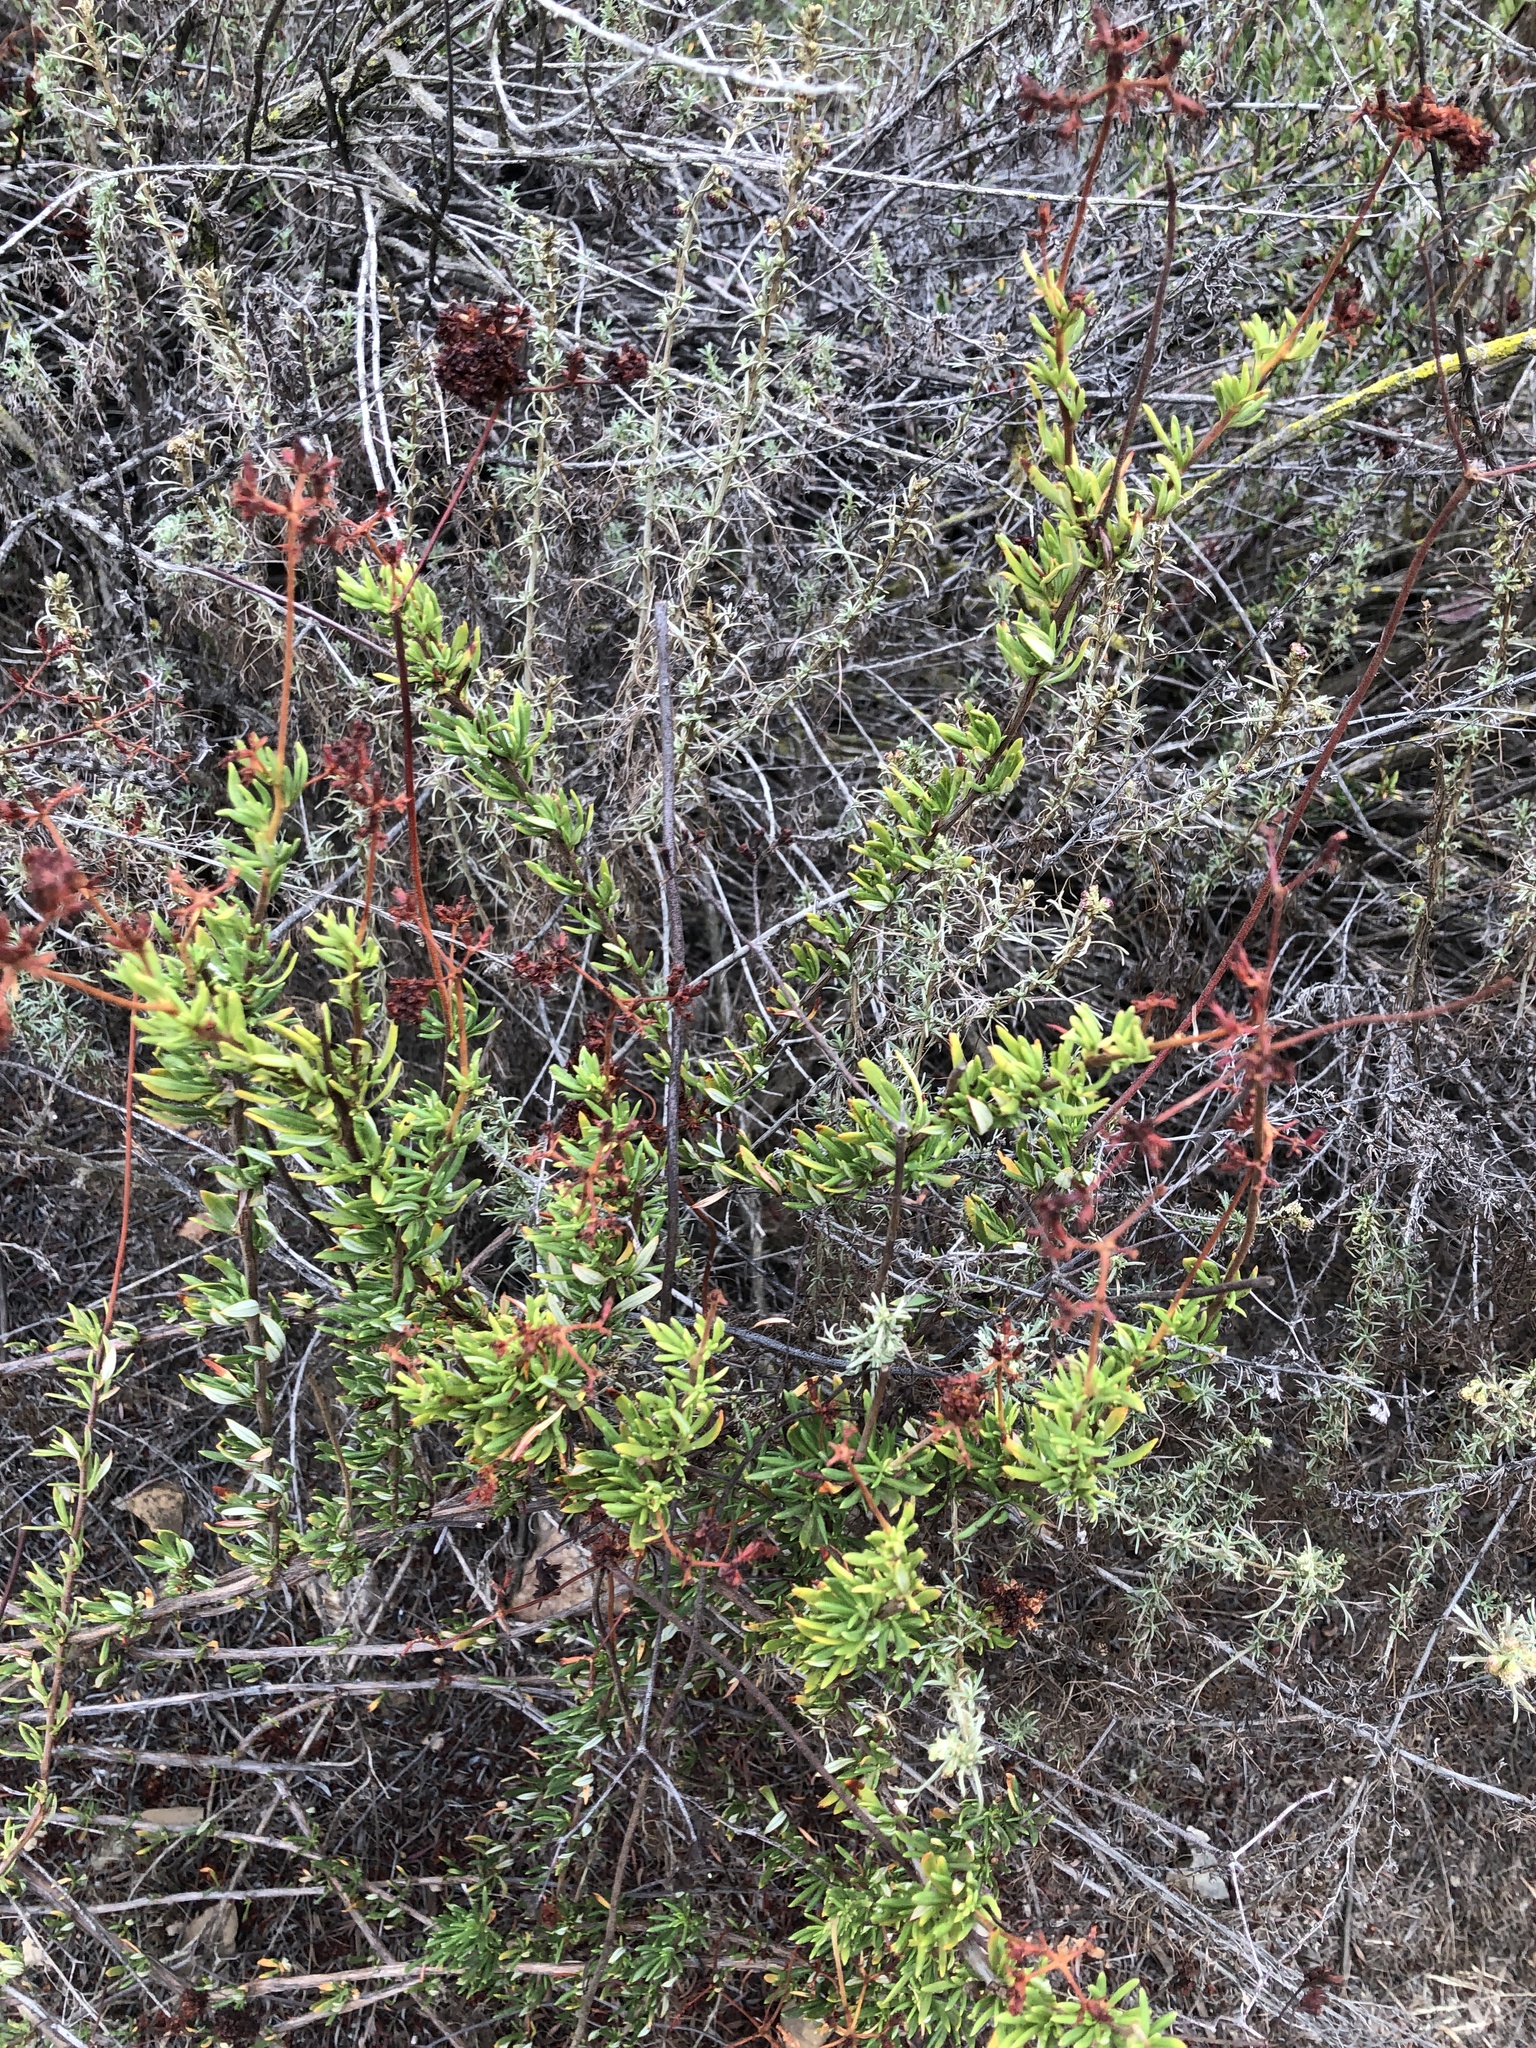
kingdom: Plantae
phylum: Tracheophyta
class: Magnoliopsida
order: Caryophyllales
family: Polygonaceae
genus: Eriogonum
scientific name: Eriogonum fasciculatum
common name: California wild buckwheat
